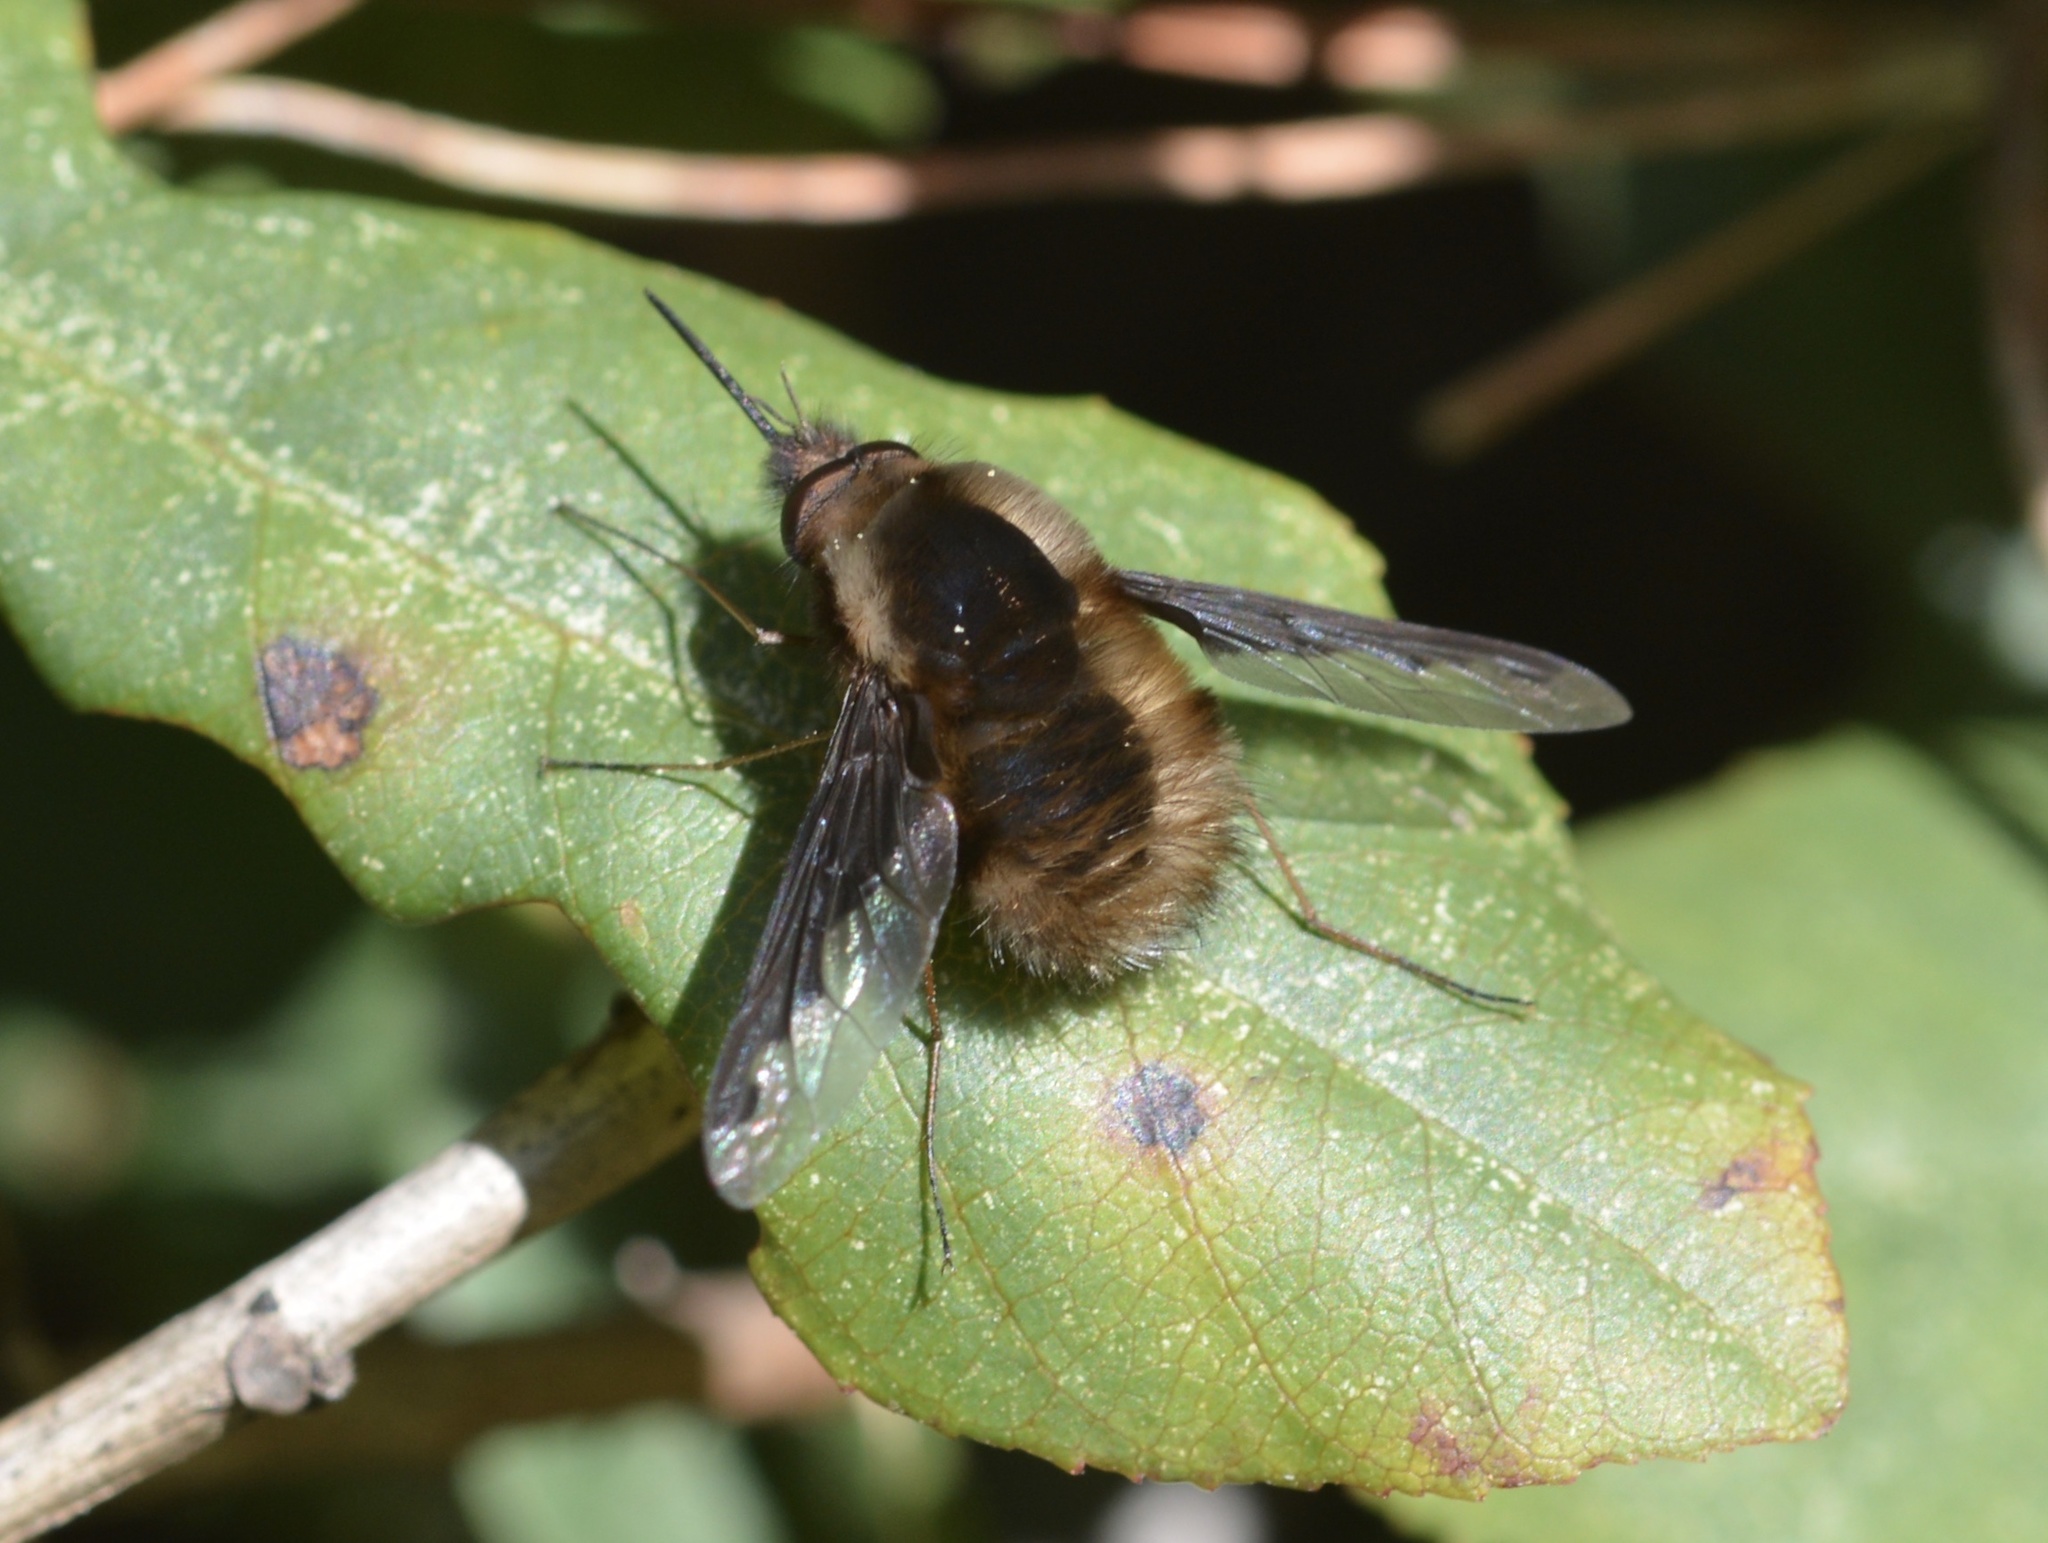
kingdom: Animalia
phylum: Arthropoda
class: Insecta
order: Diptera
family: Bombyliidae
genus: Bombylius
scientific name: Bombylius major
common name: Bee fly
